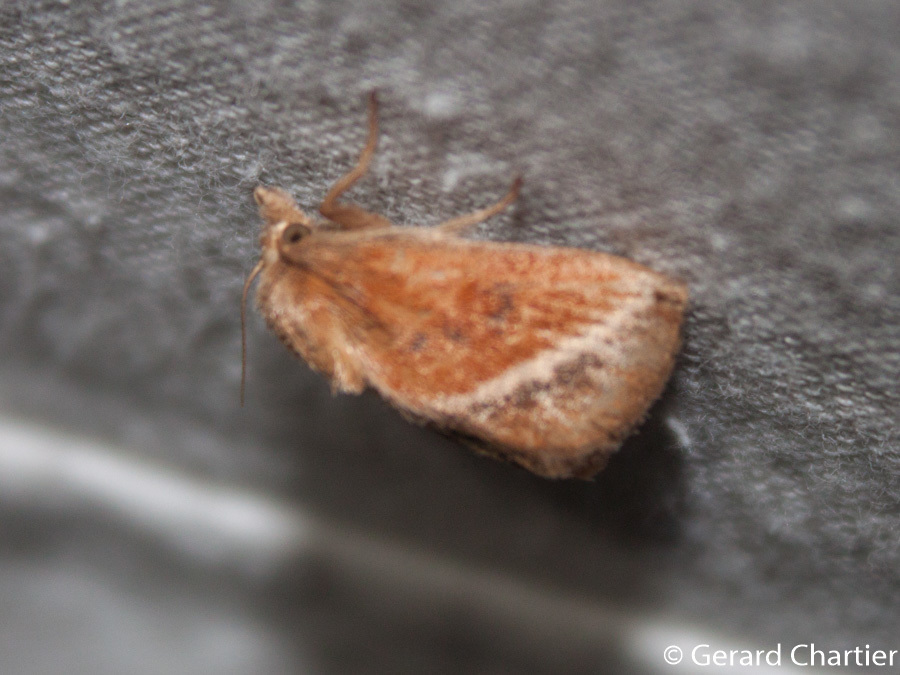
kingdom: Animalia
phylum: Arthropoda
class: Insecta
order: Lepidoptera
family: Limacodidae
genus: Oxyplax
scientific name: Oxyplax pallivitta
